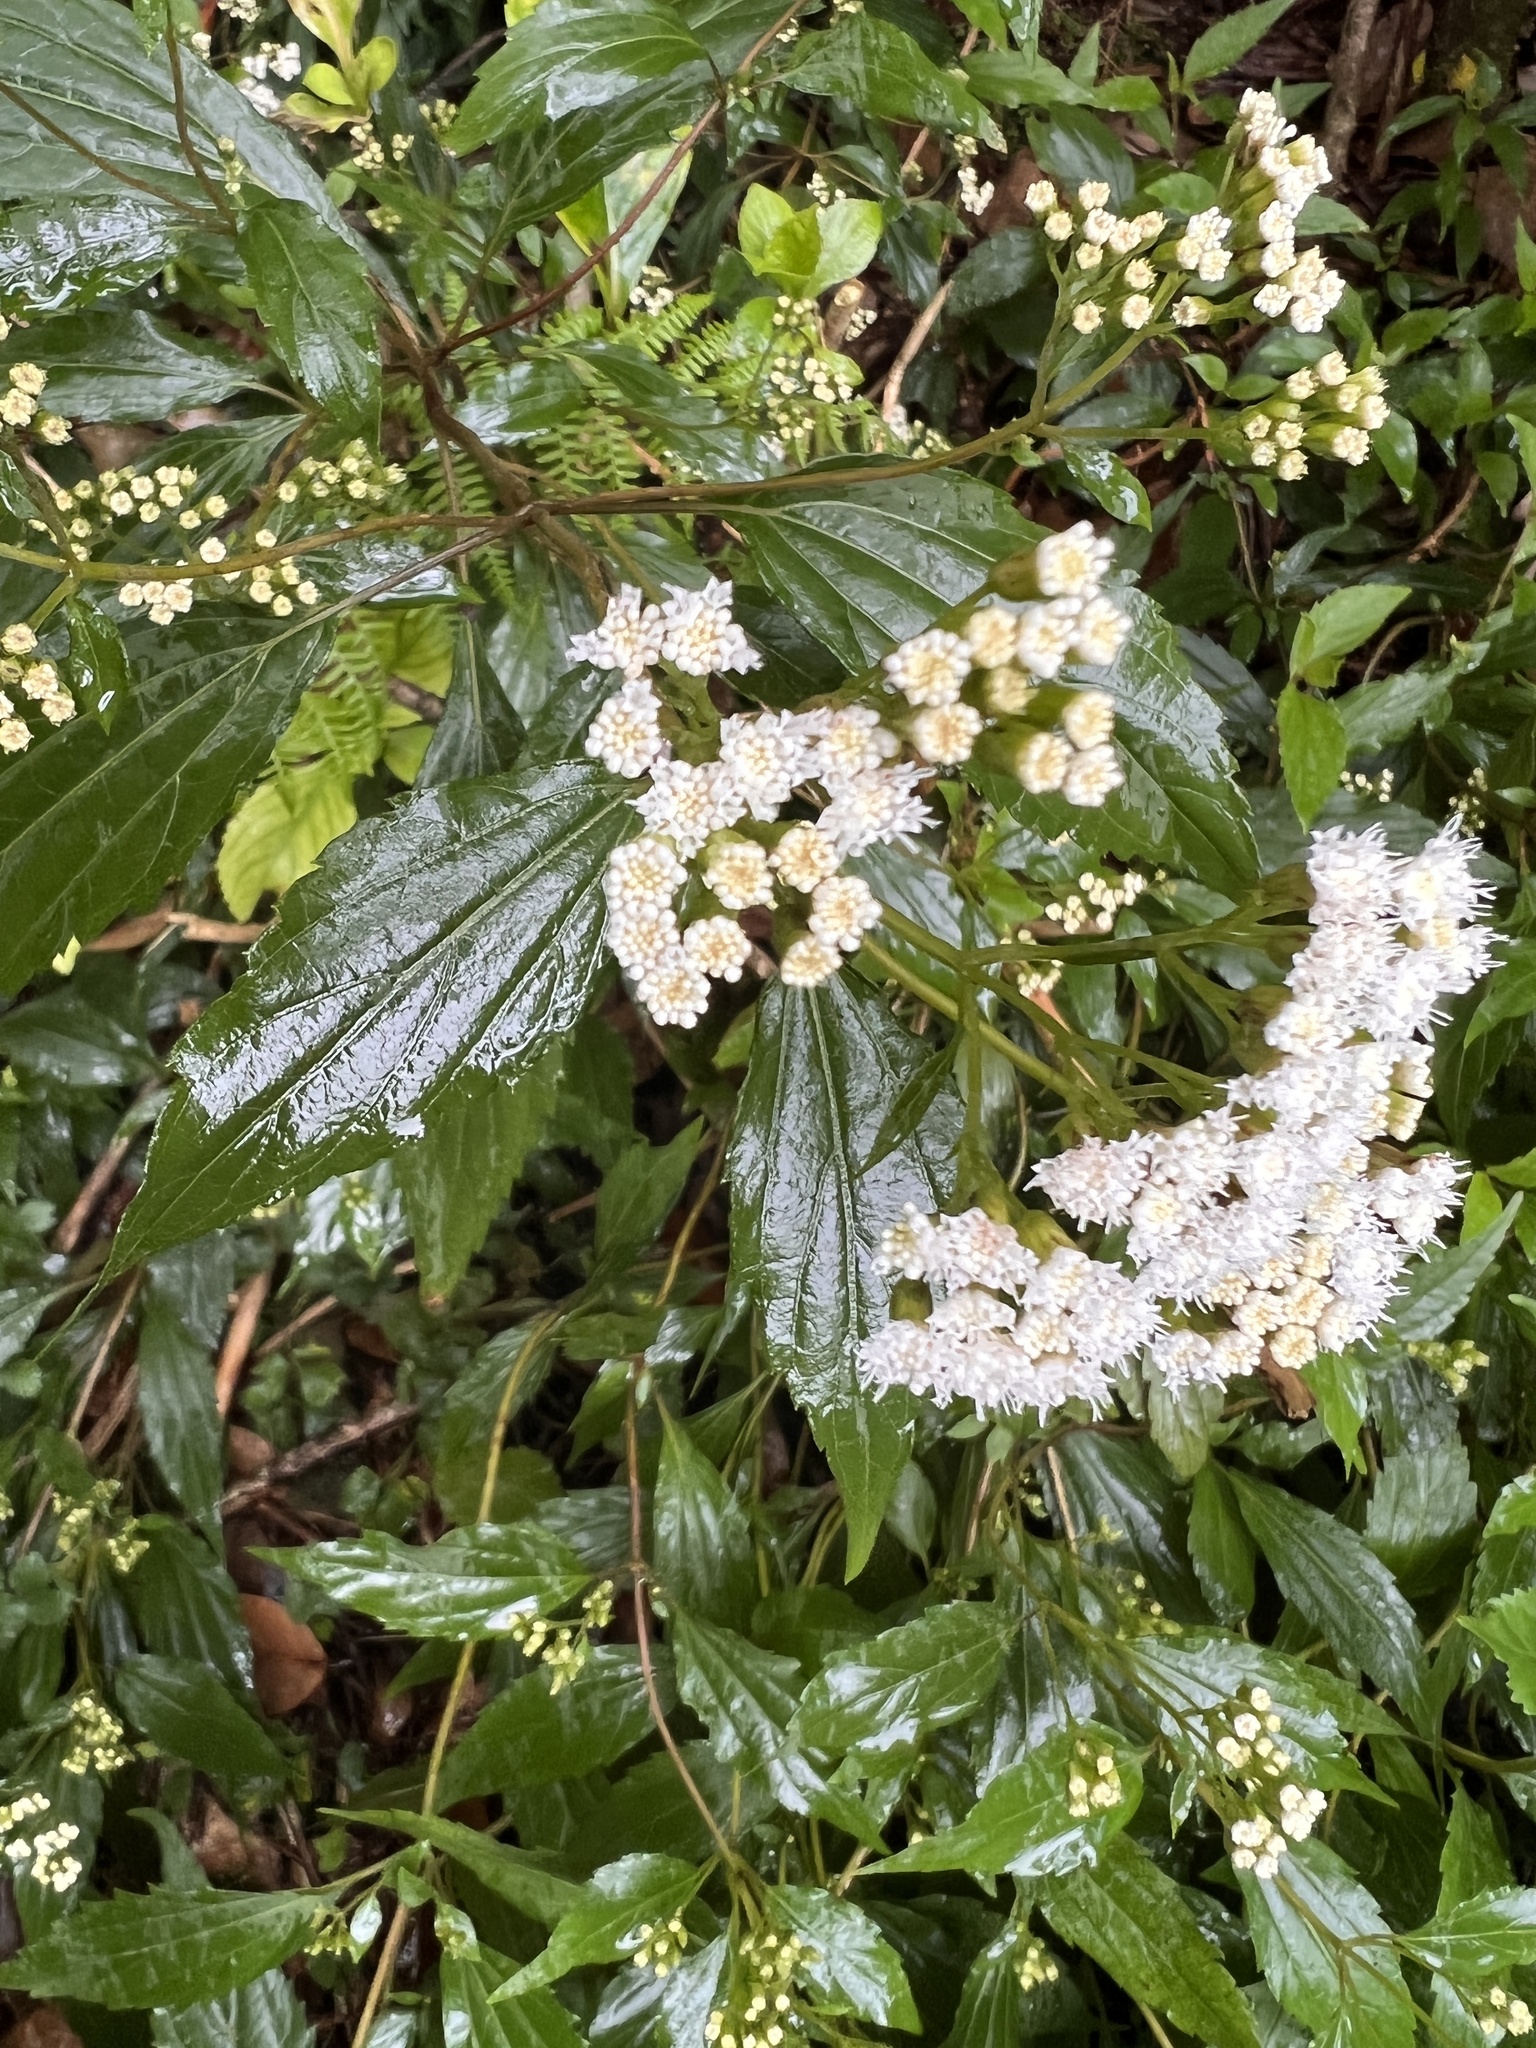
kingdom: Plantae
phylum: Tracheophyta
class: Magnoliopsida
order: Asterales
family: Asteraceae
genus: Ageratina
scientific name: Ageratina adenophora
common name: Sticky snakeroot
